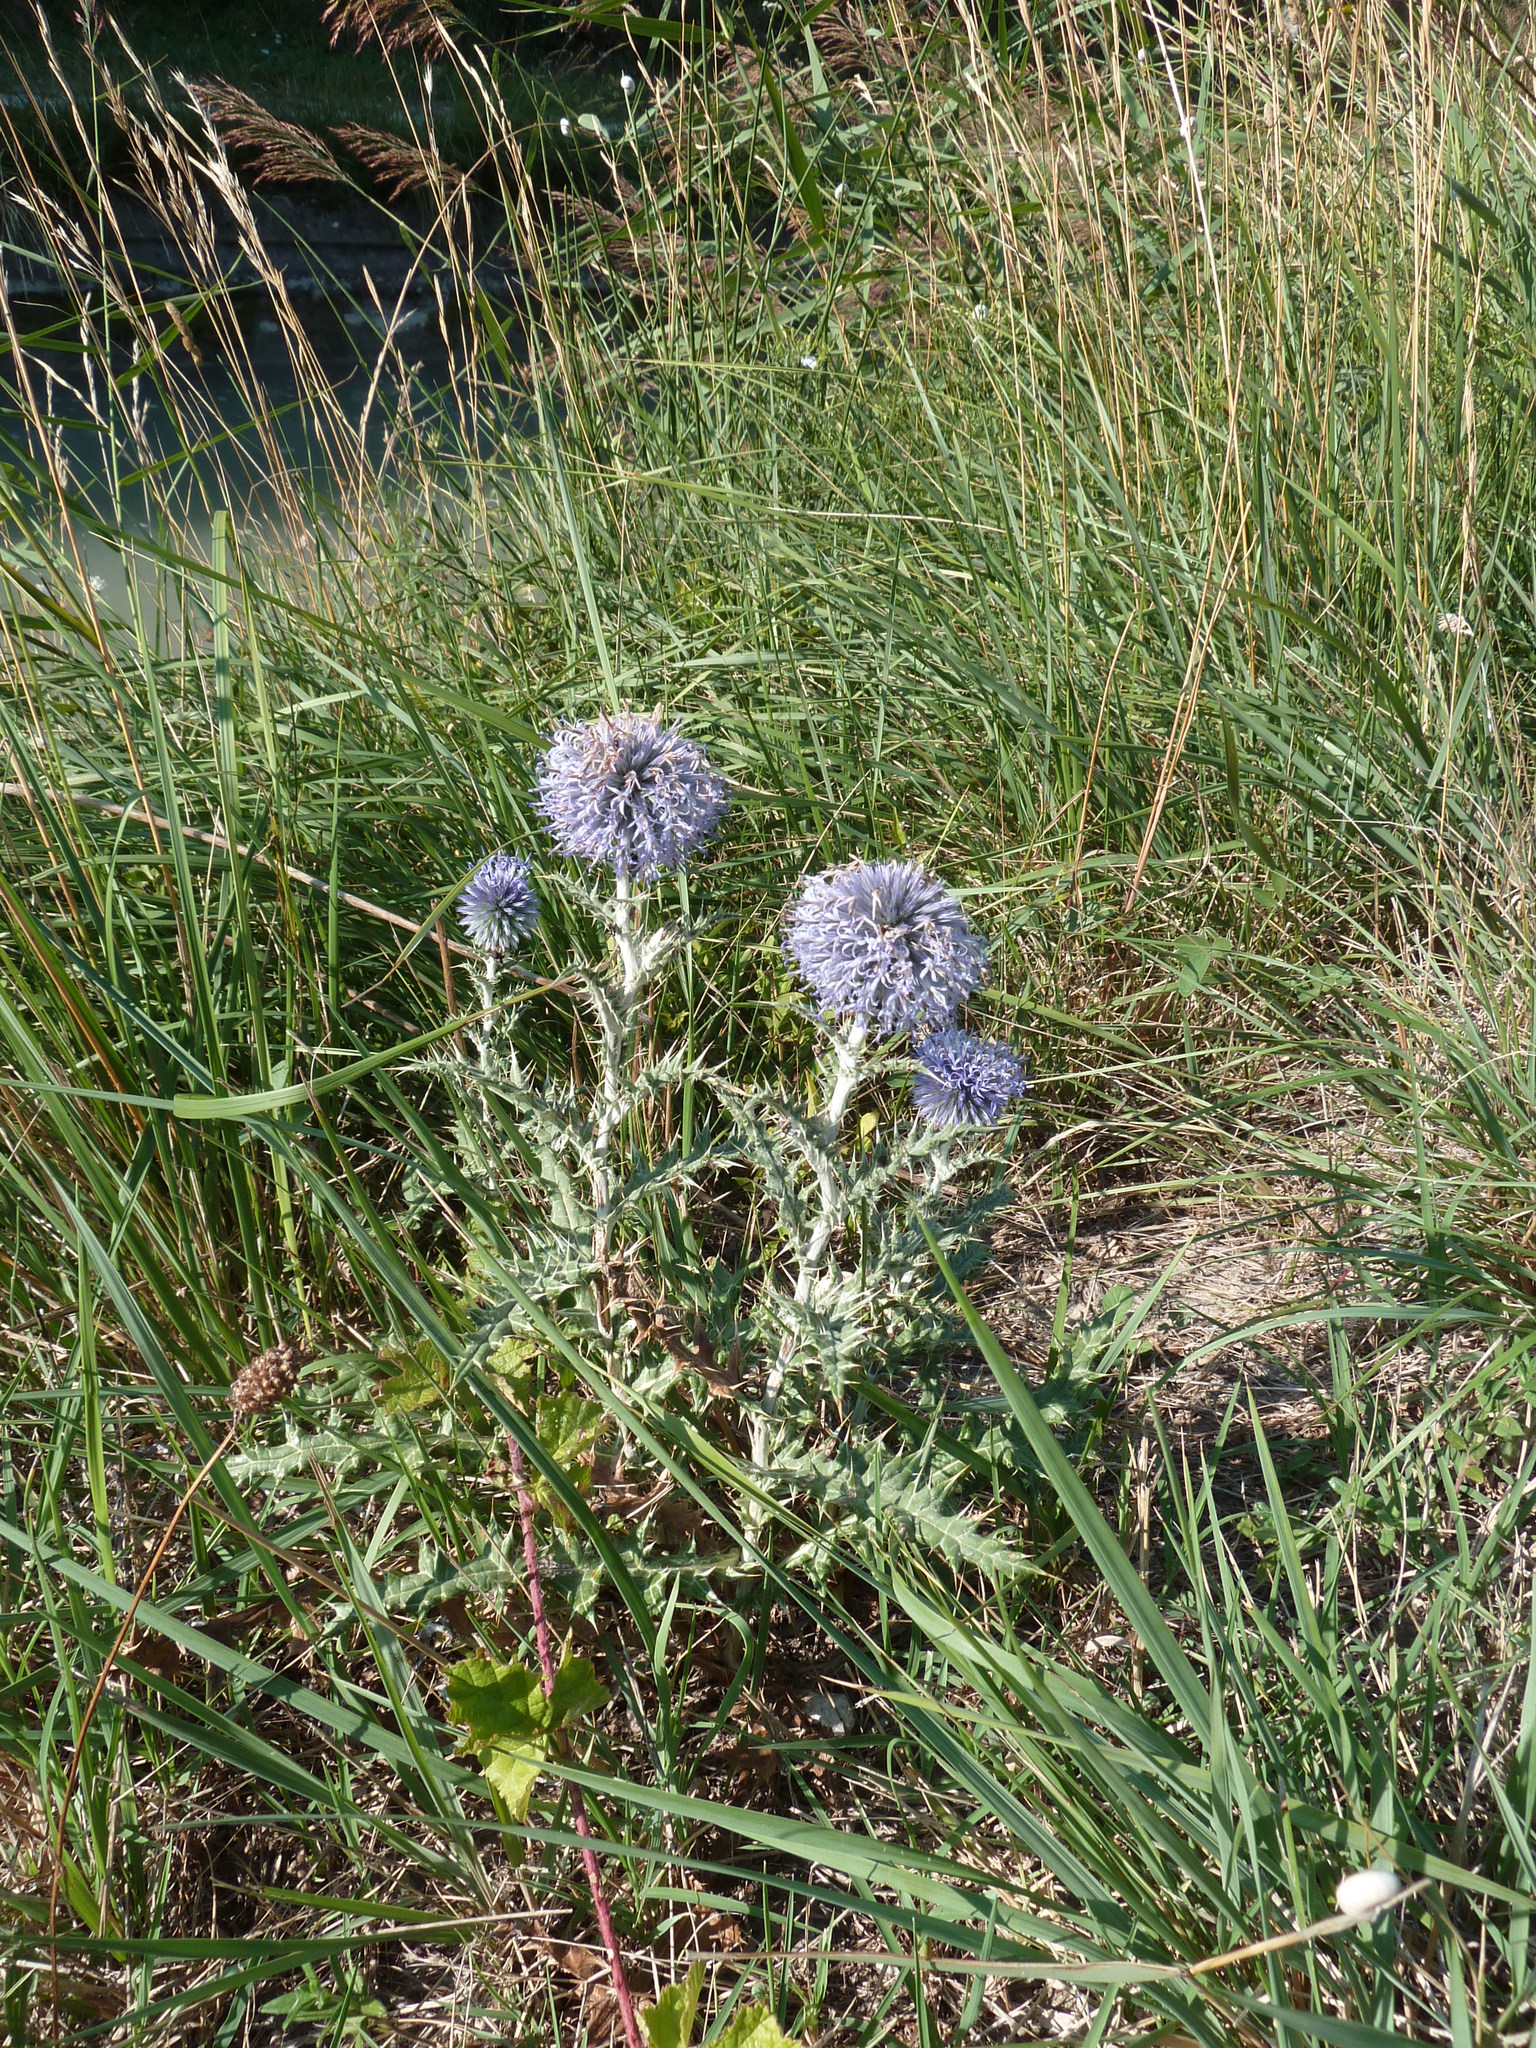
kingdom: Plantae
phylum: Tracheophyta
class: Magnoliopsida
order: Asterales
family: Asteraceae
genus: Echinops
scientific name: Echinops ritro
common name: Globe thistle
